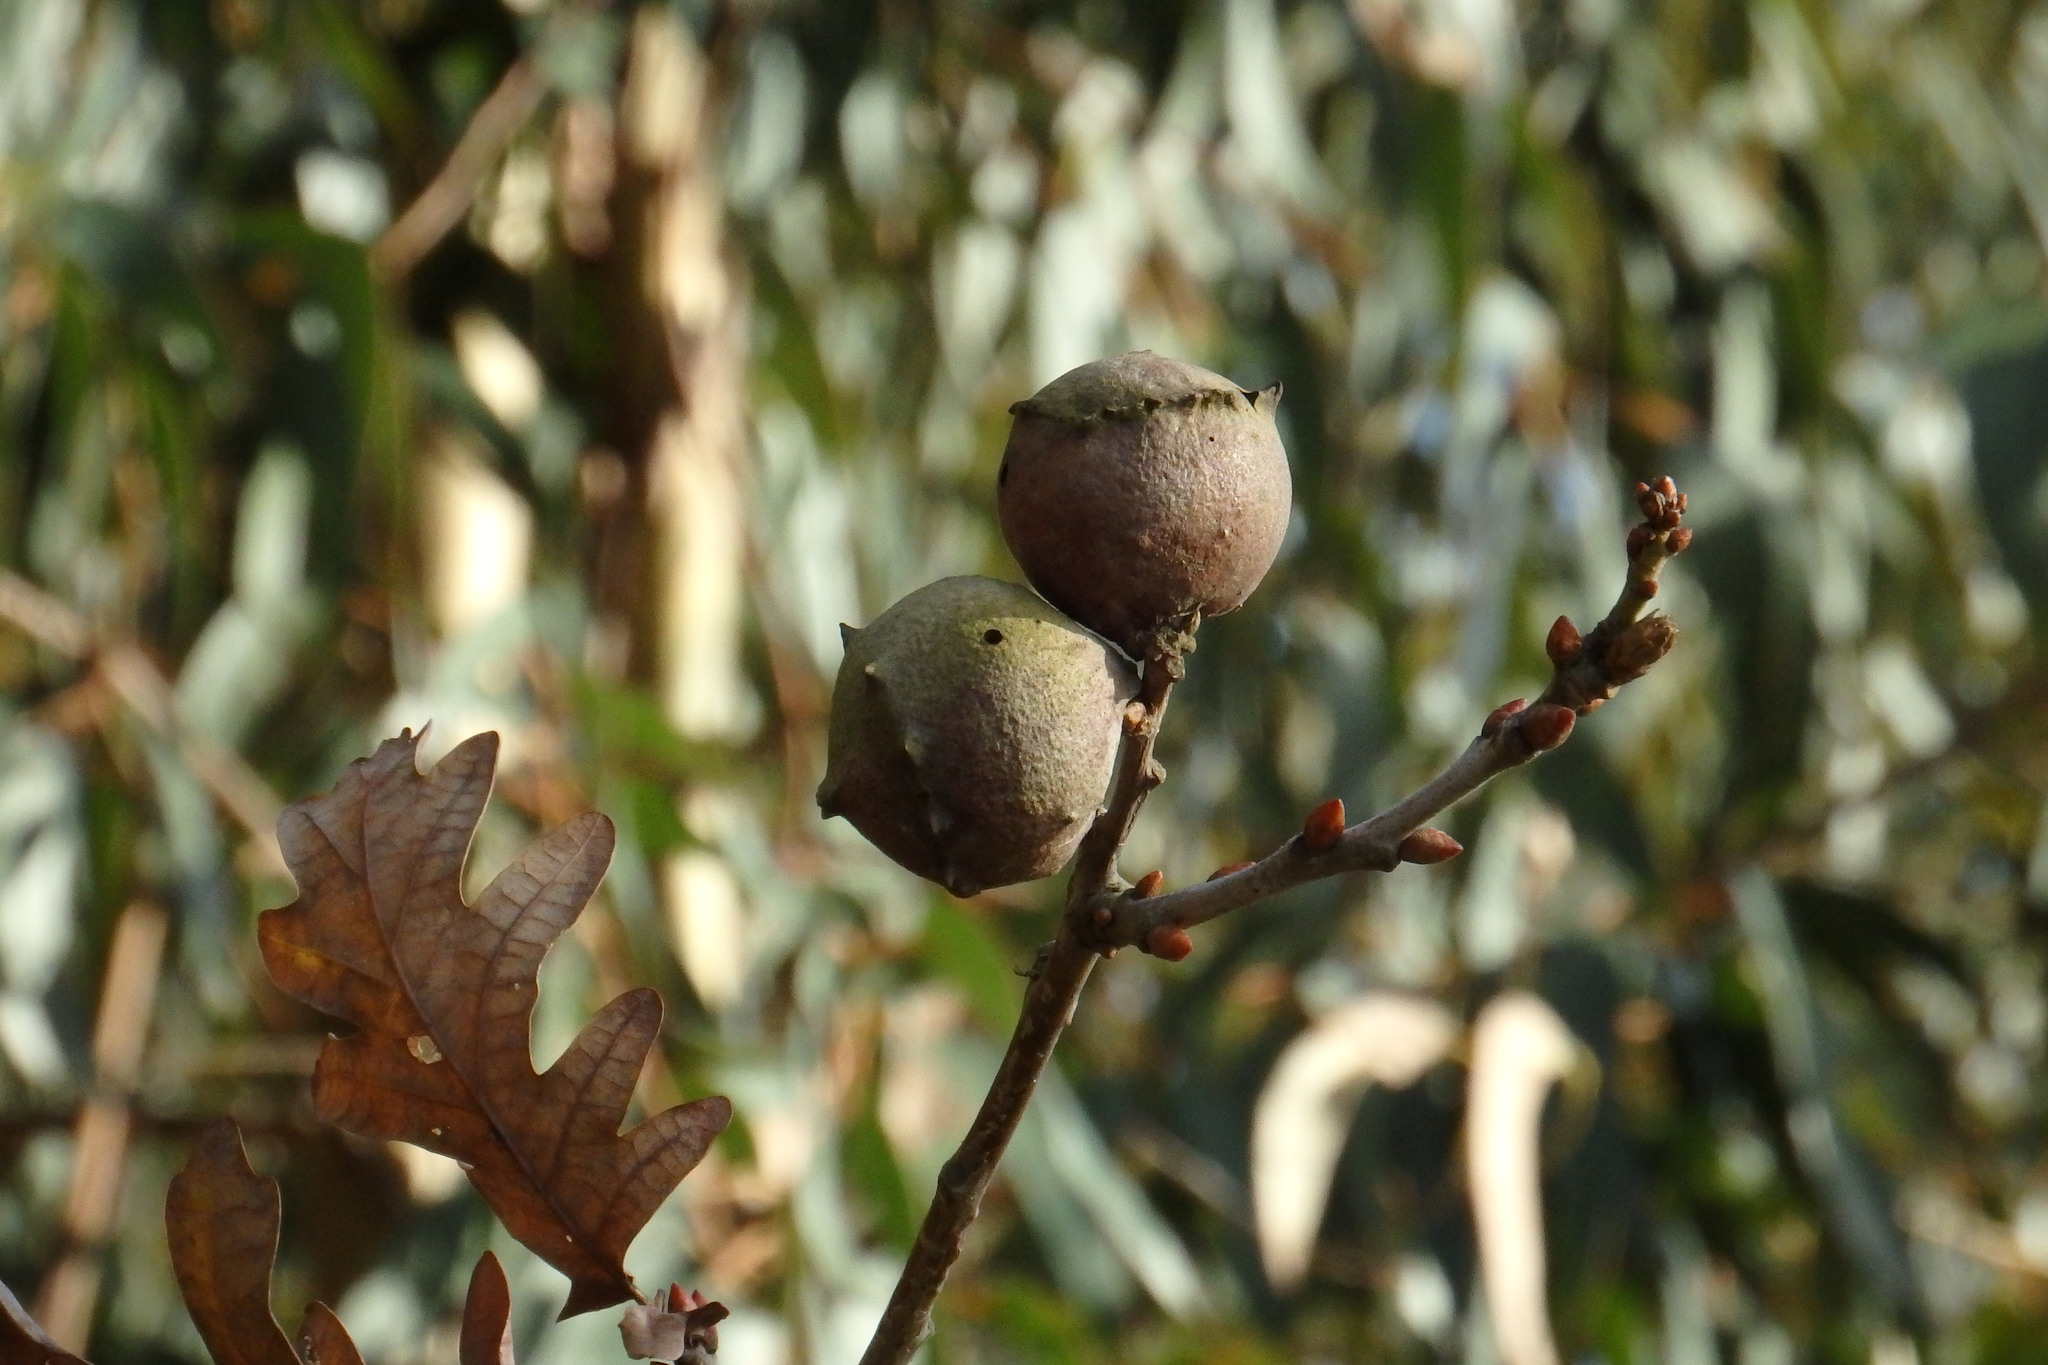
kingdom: Animalia
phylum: Arthropoda
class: Insecta
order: Hymenoptera
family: Cynipidae
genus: Andricus
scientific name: Andricus quercustozae
